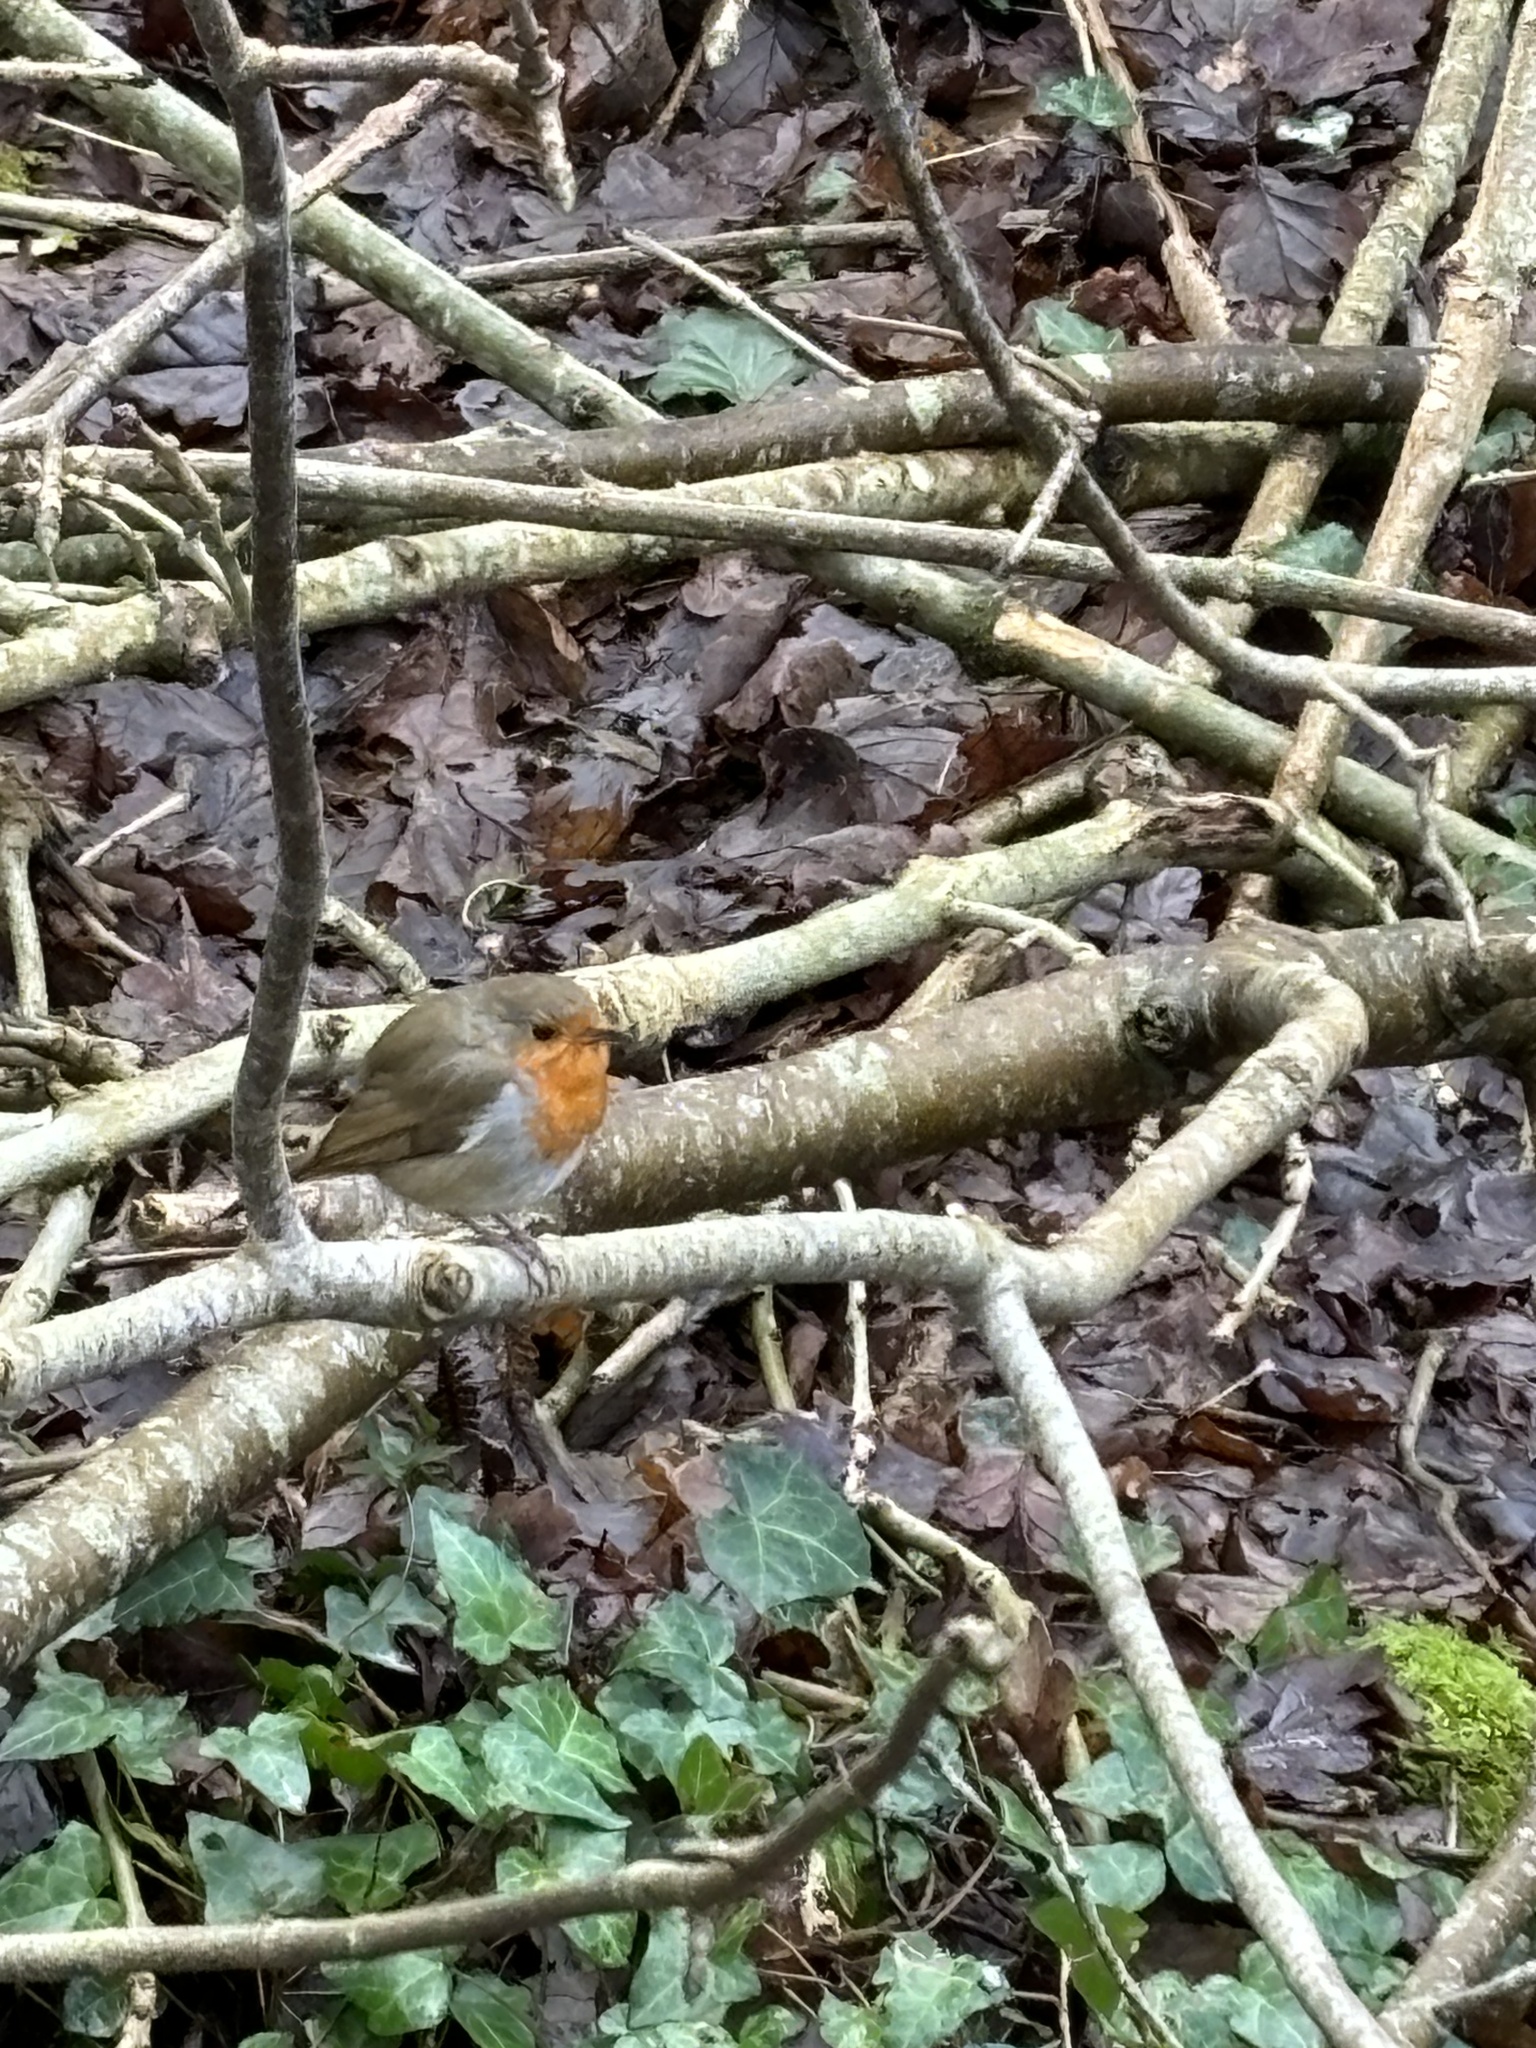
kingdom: Animalia
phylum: Chordata
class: Aves
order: Passeriformes
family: Muscicapidae
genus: Erithacus
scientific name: Erithacus rubecula
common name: European robin
